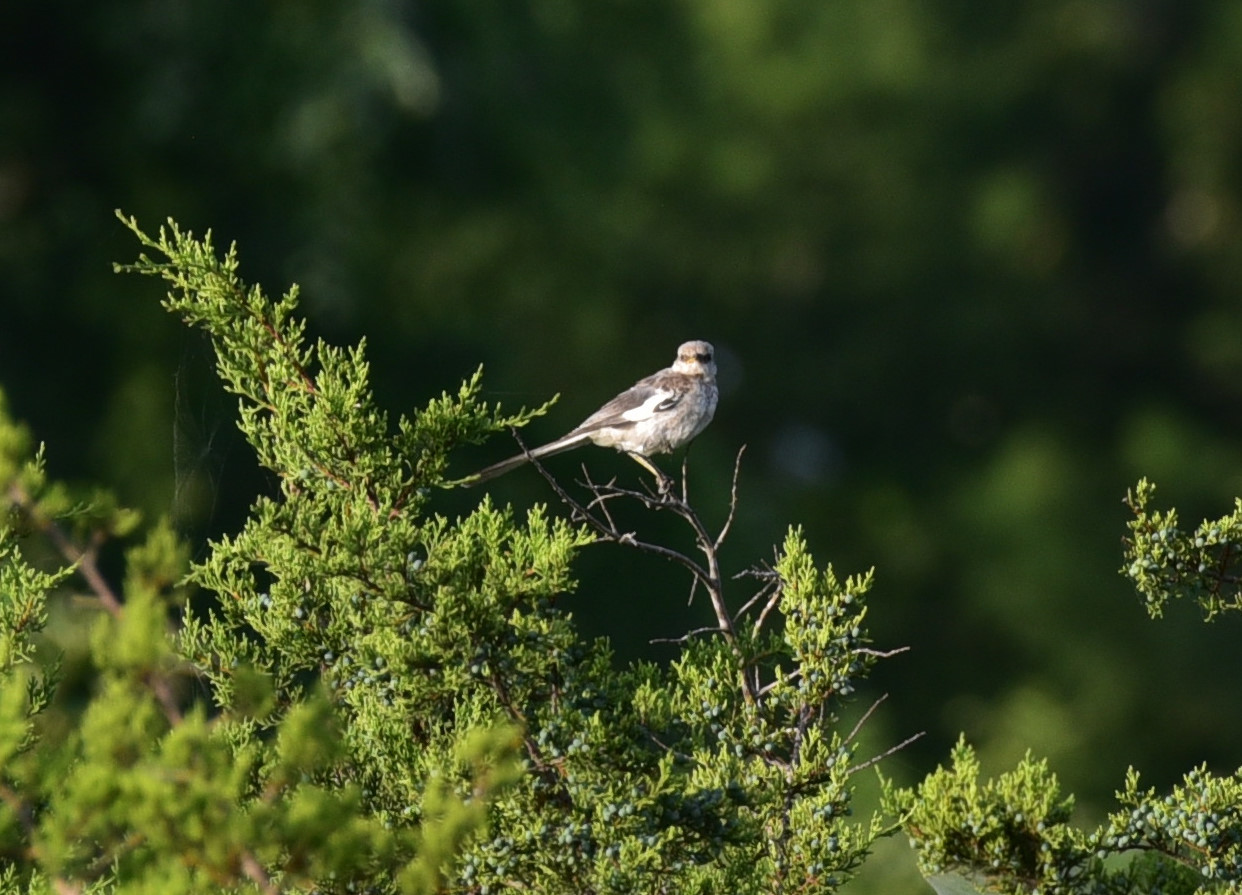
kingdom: Animalia
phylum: Chordata
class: Aves
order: Passeriformes
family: Mimidae
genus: Mimus
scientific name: Mimus polyglottos
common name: Northern mockingbird
